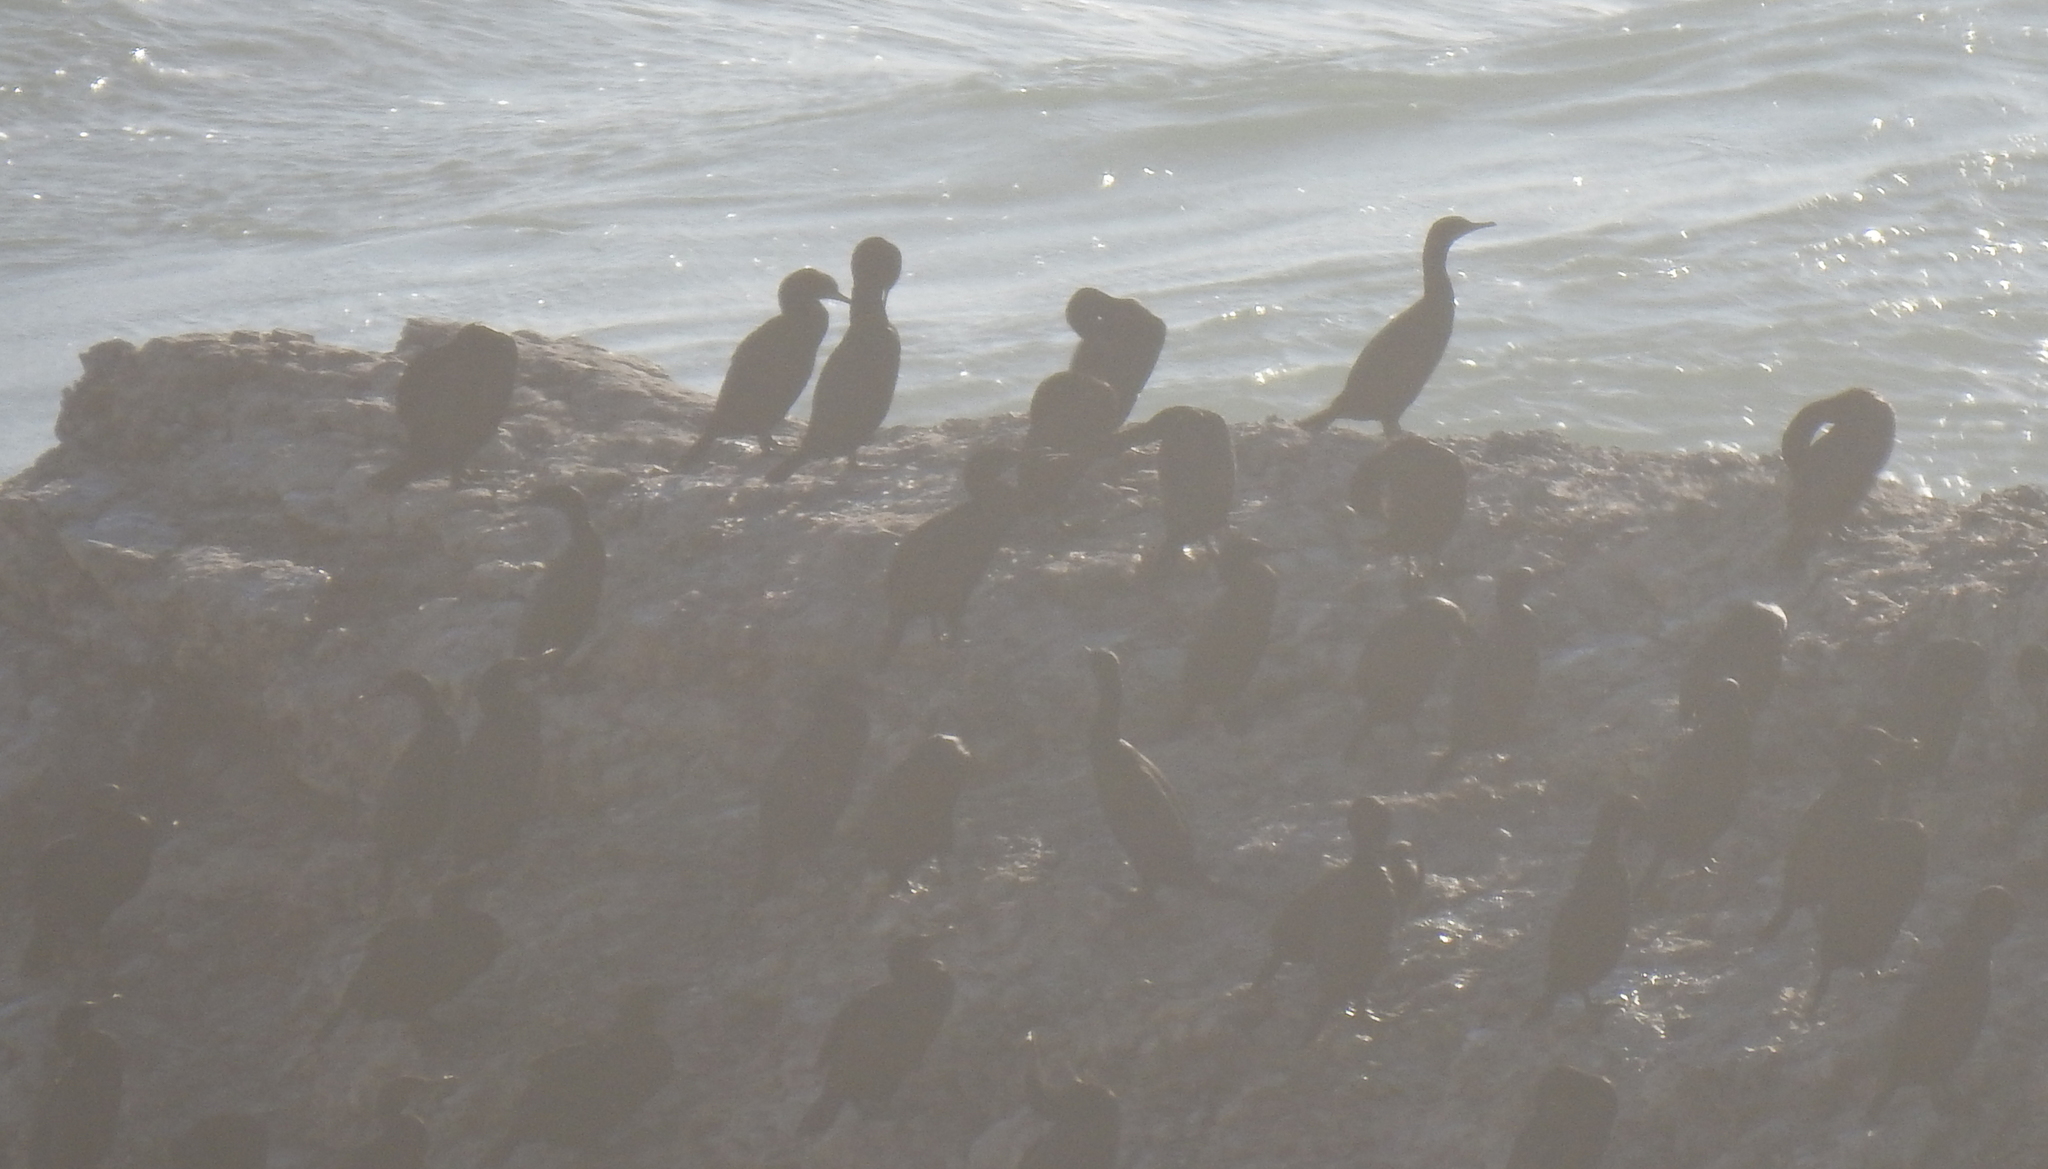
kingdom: Animalia
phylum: Chordata
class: Aves
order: Suliformes
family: Phalacrocoracidae
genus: Urile
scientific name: Urile penicillatus
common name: Brandt's cormorant
